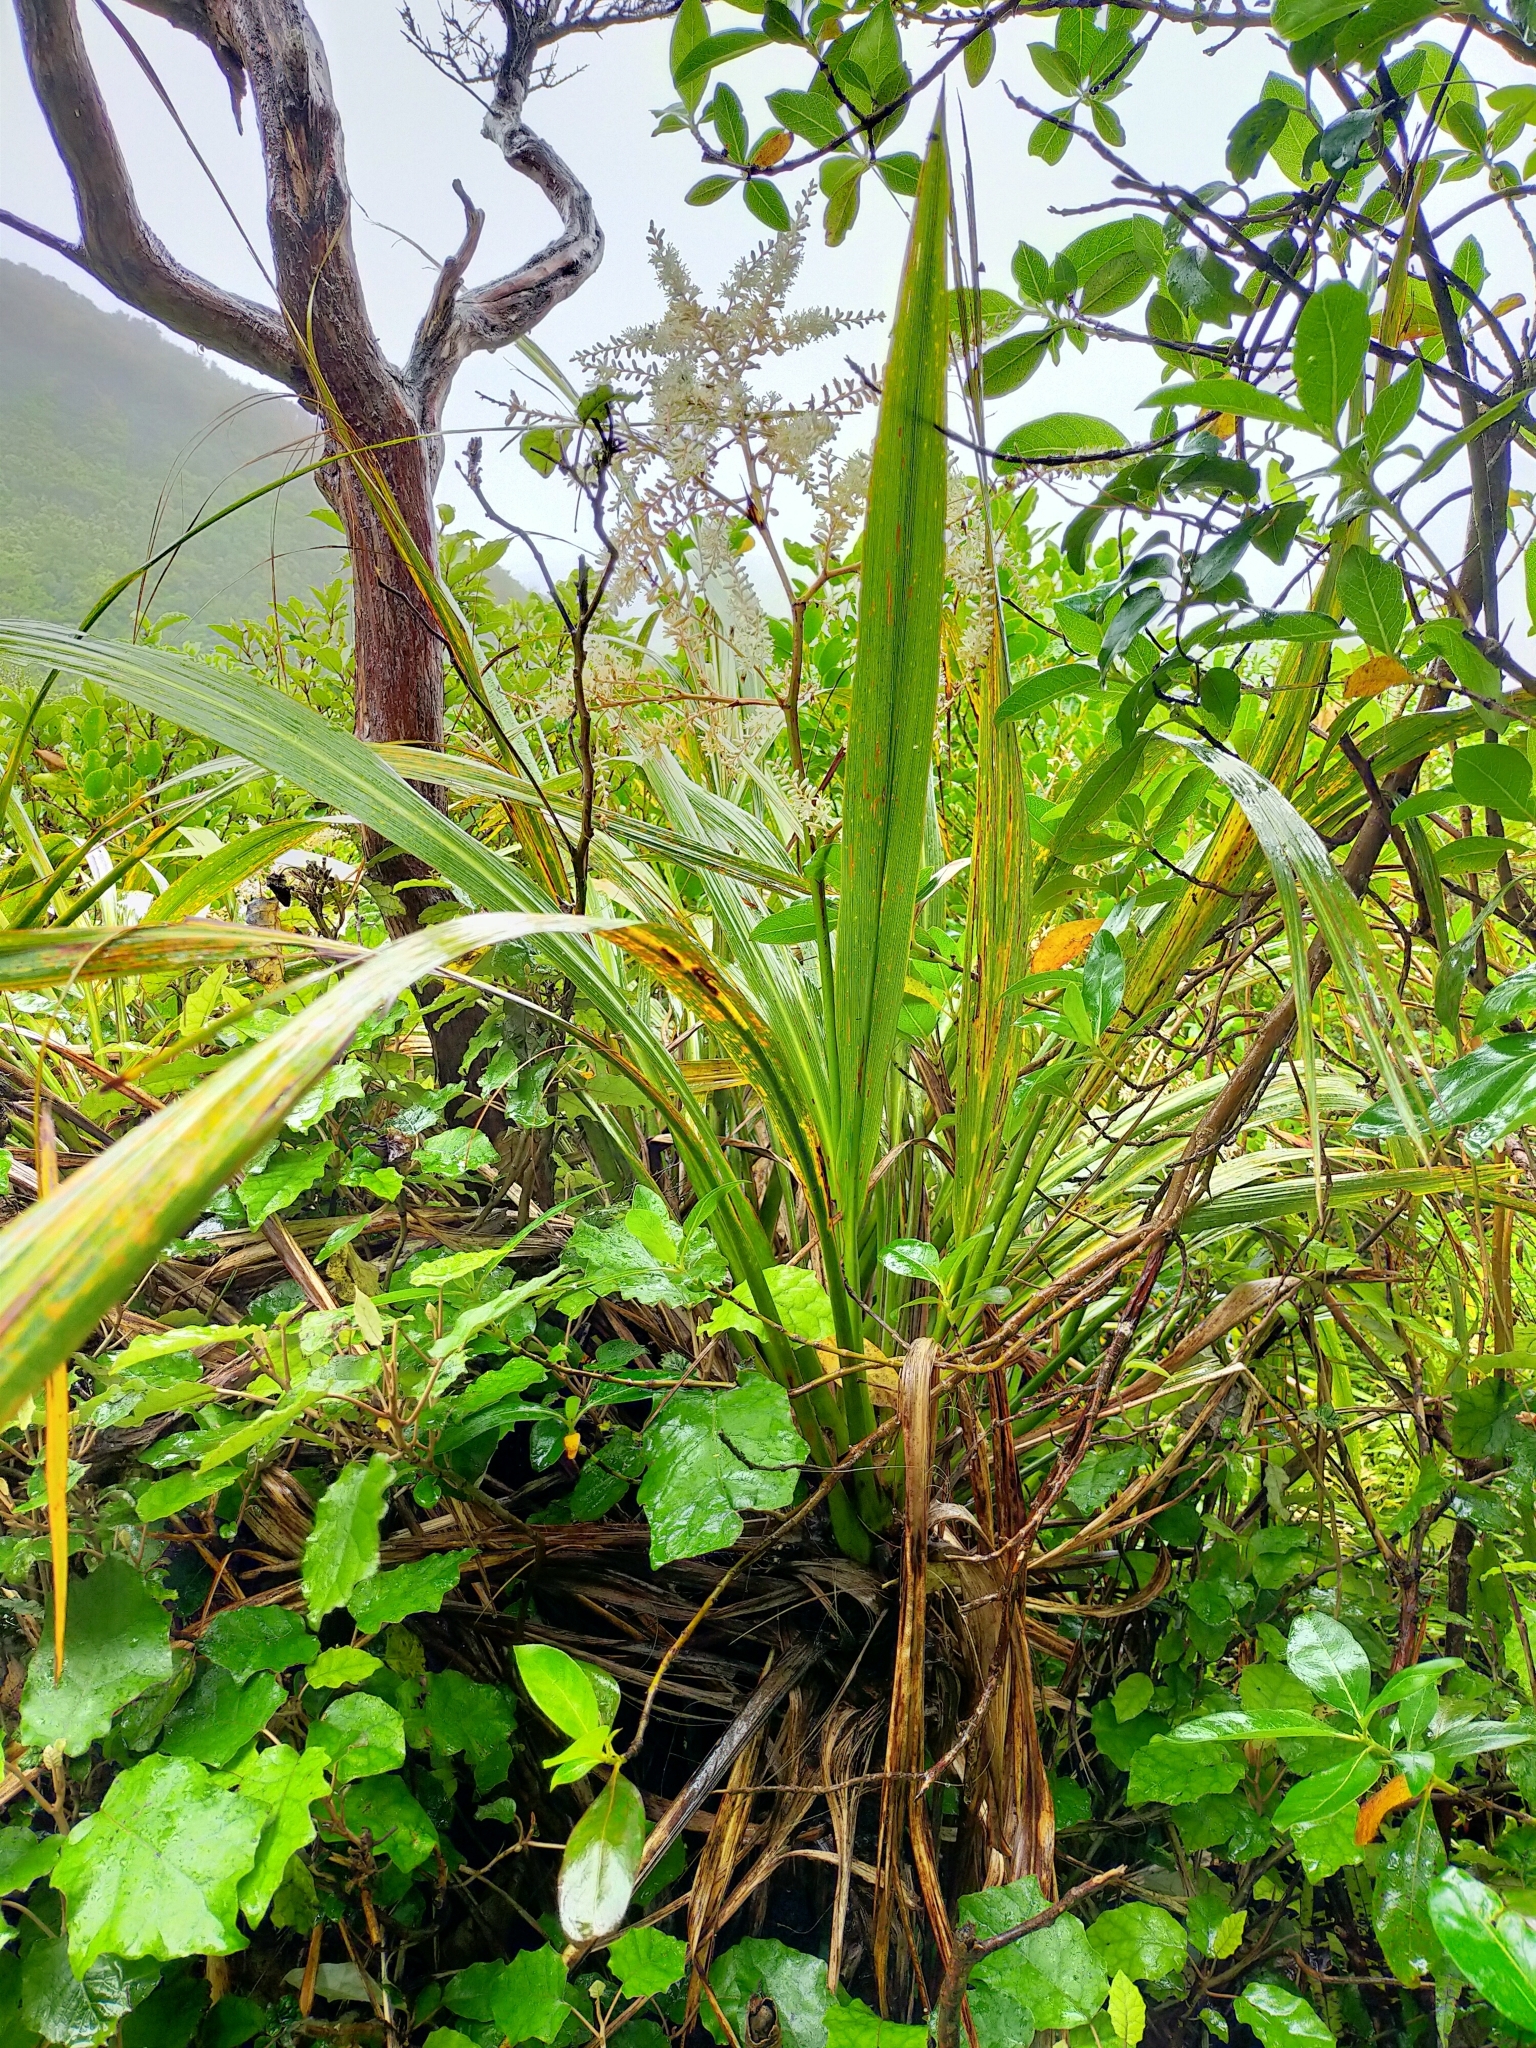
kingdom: Plantae
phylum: Tracheophyta
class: Liliopsida
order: Asparagales
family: Asparagaceae
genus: Cordyline
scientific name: Cordyline banksii
